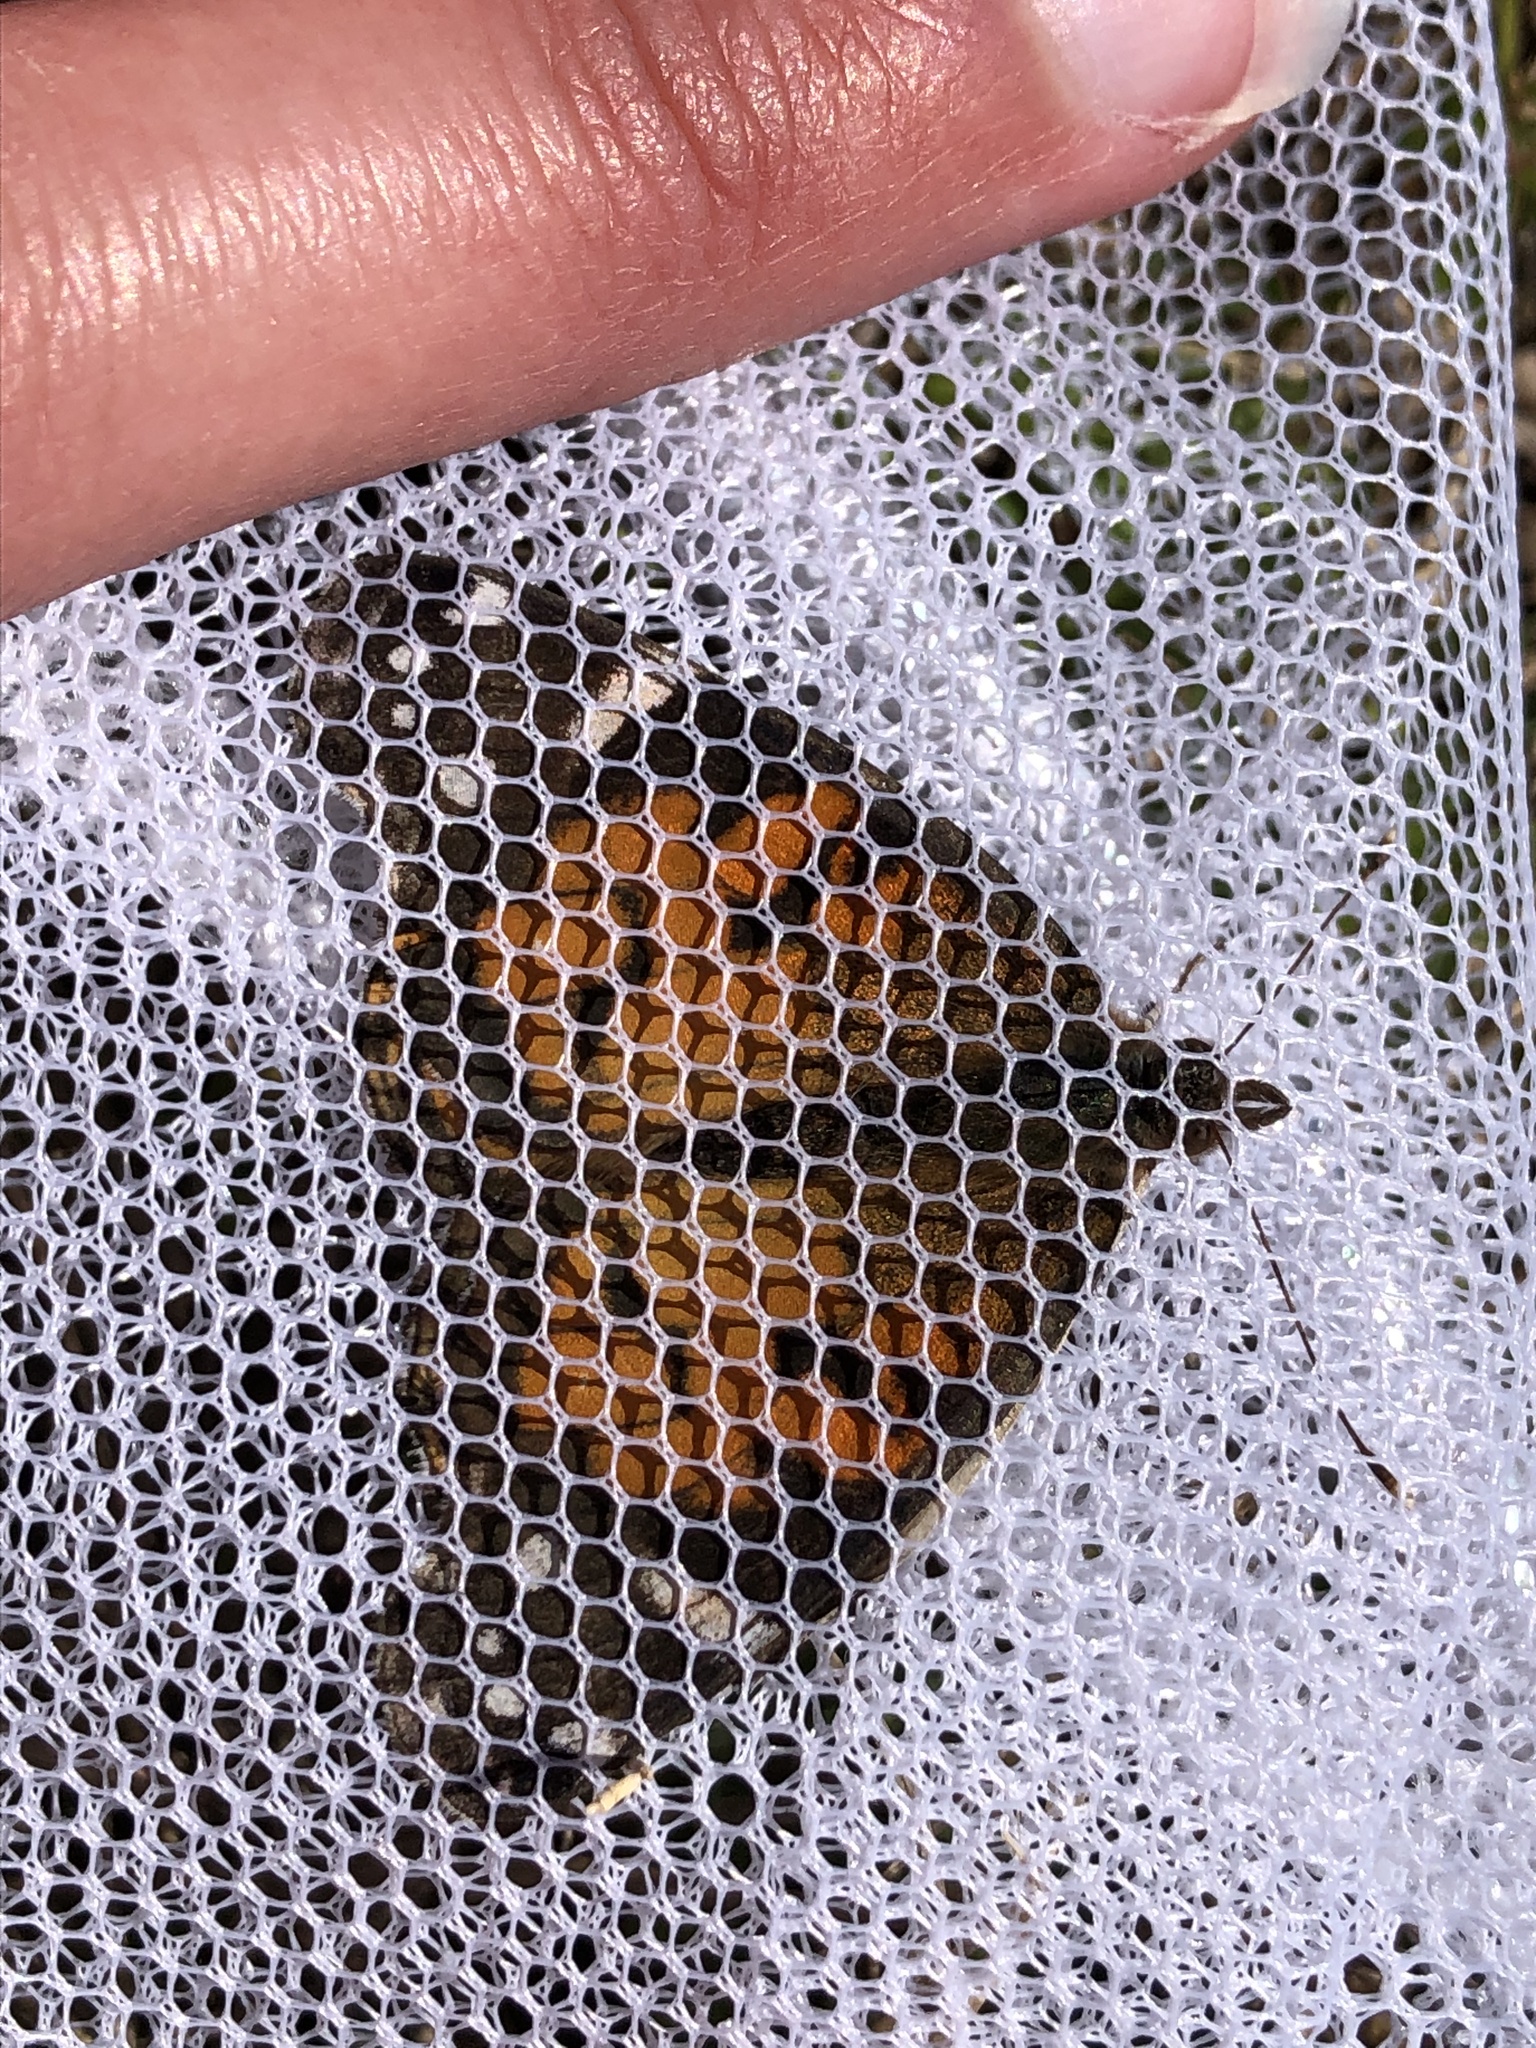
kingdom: Animalia
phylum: Arthropoda
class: Insecta
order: Lepidoptera
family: Nymphalidae
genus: Vanessa
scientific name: Vanessa virginiensis
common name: American lady
